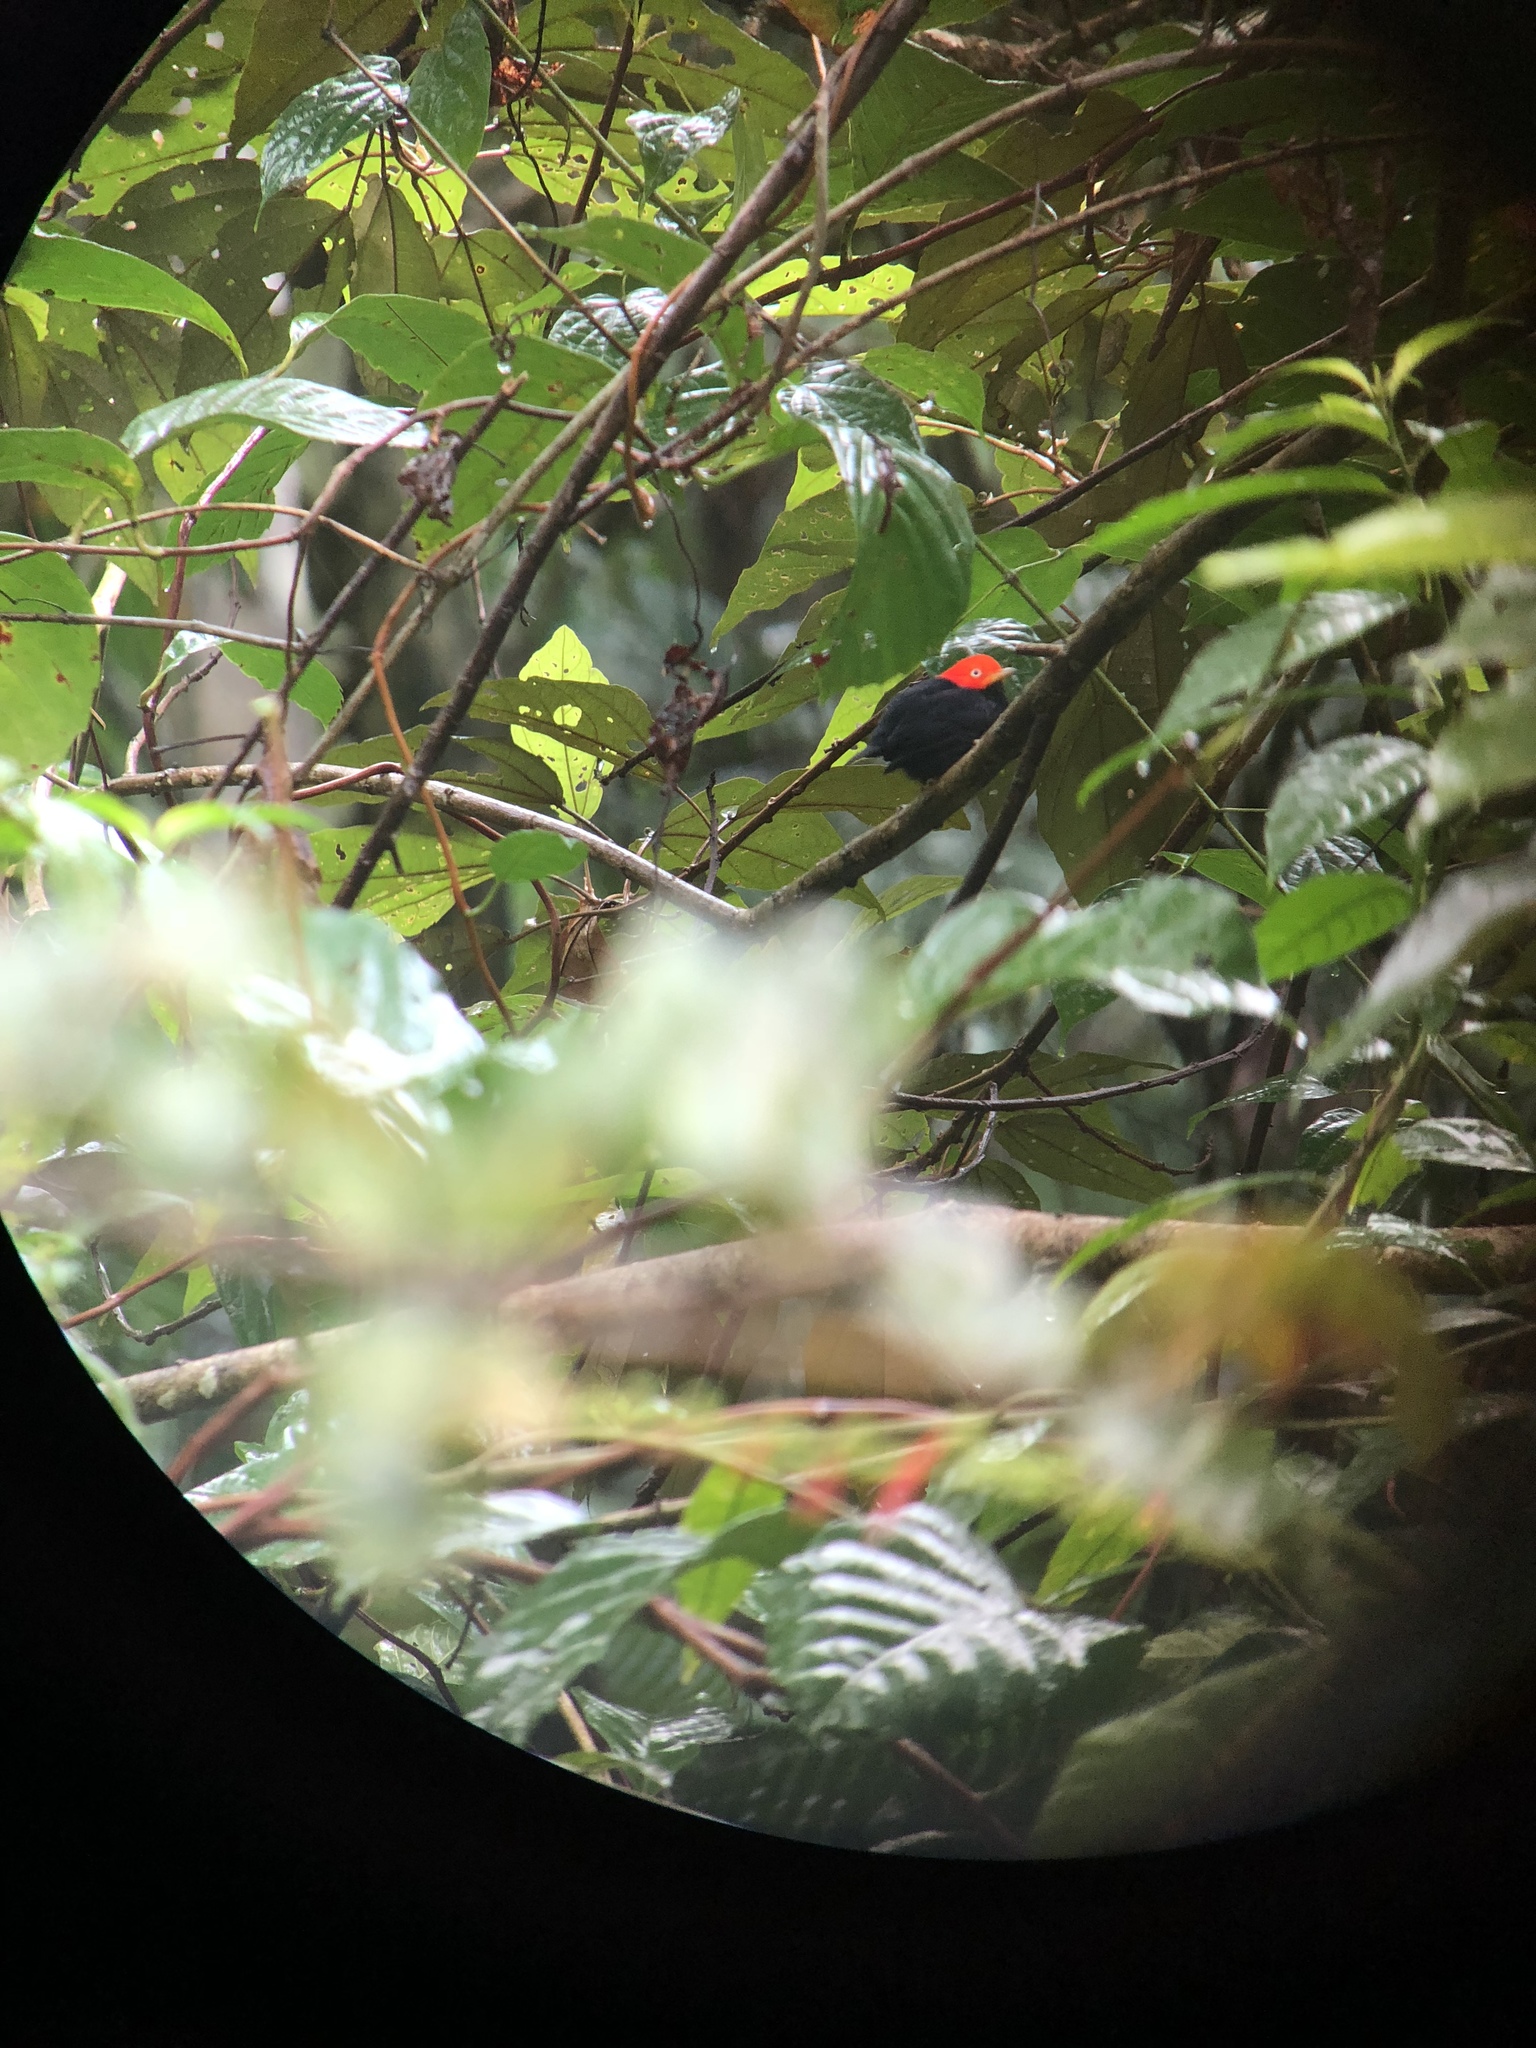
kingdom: Animalia
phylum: Chordata
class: Aves
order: Passeriformes
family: Pipridae
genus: Pipra
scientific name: Pipra mentalis
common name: Red-capped manakin
